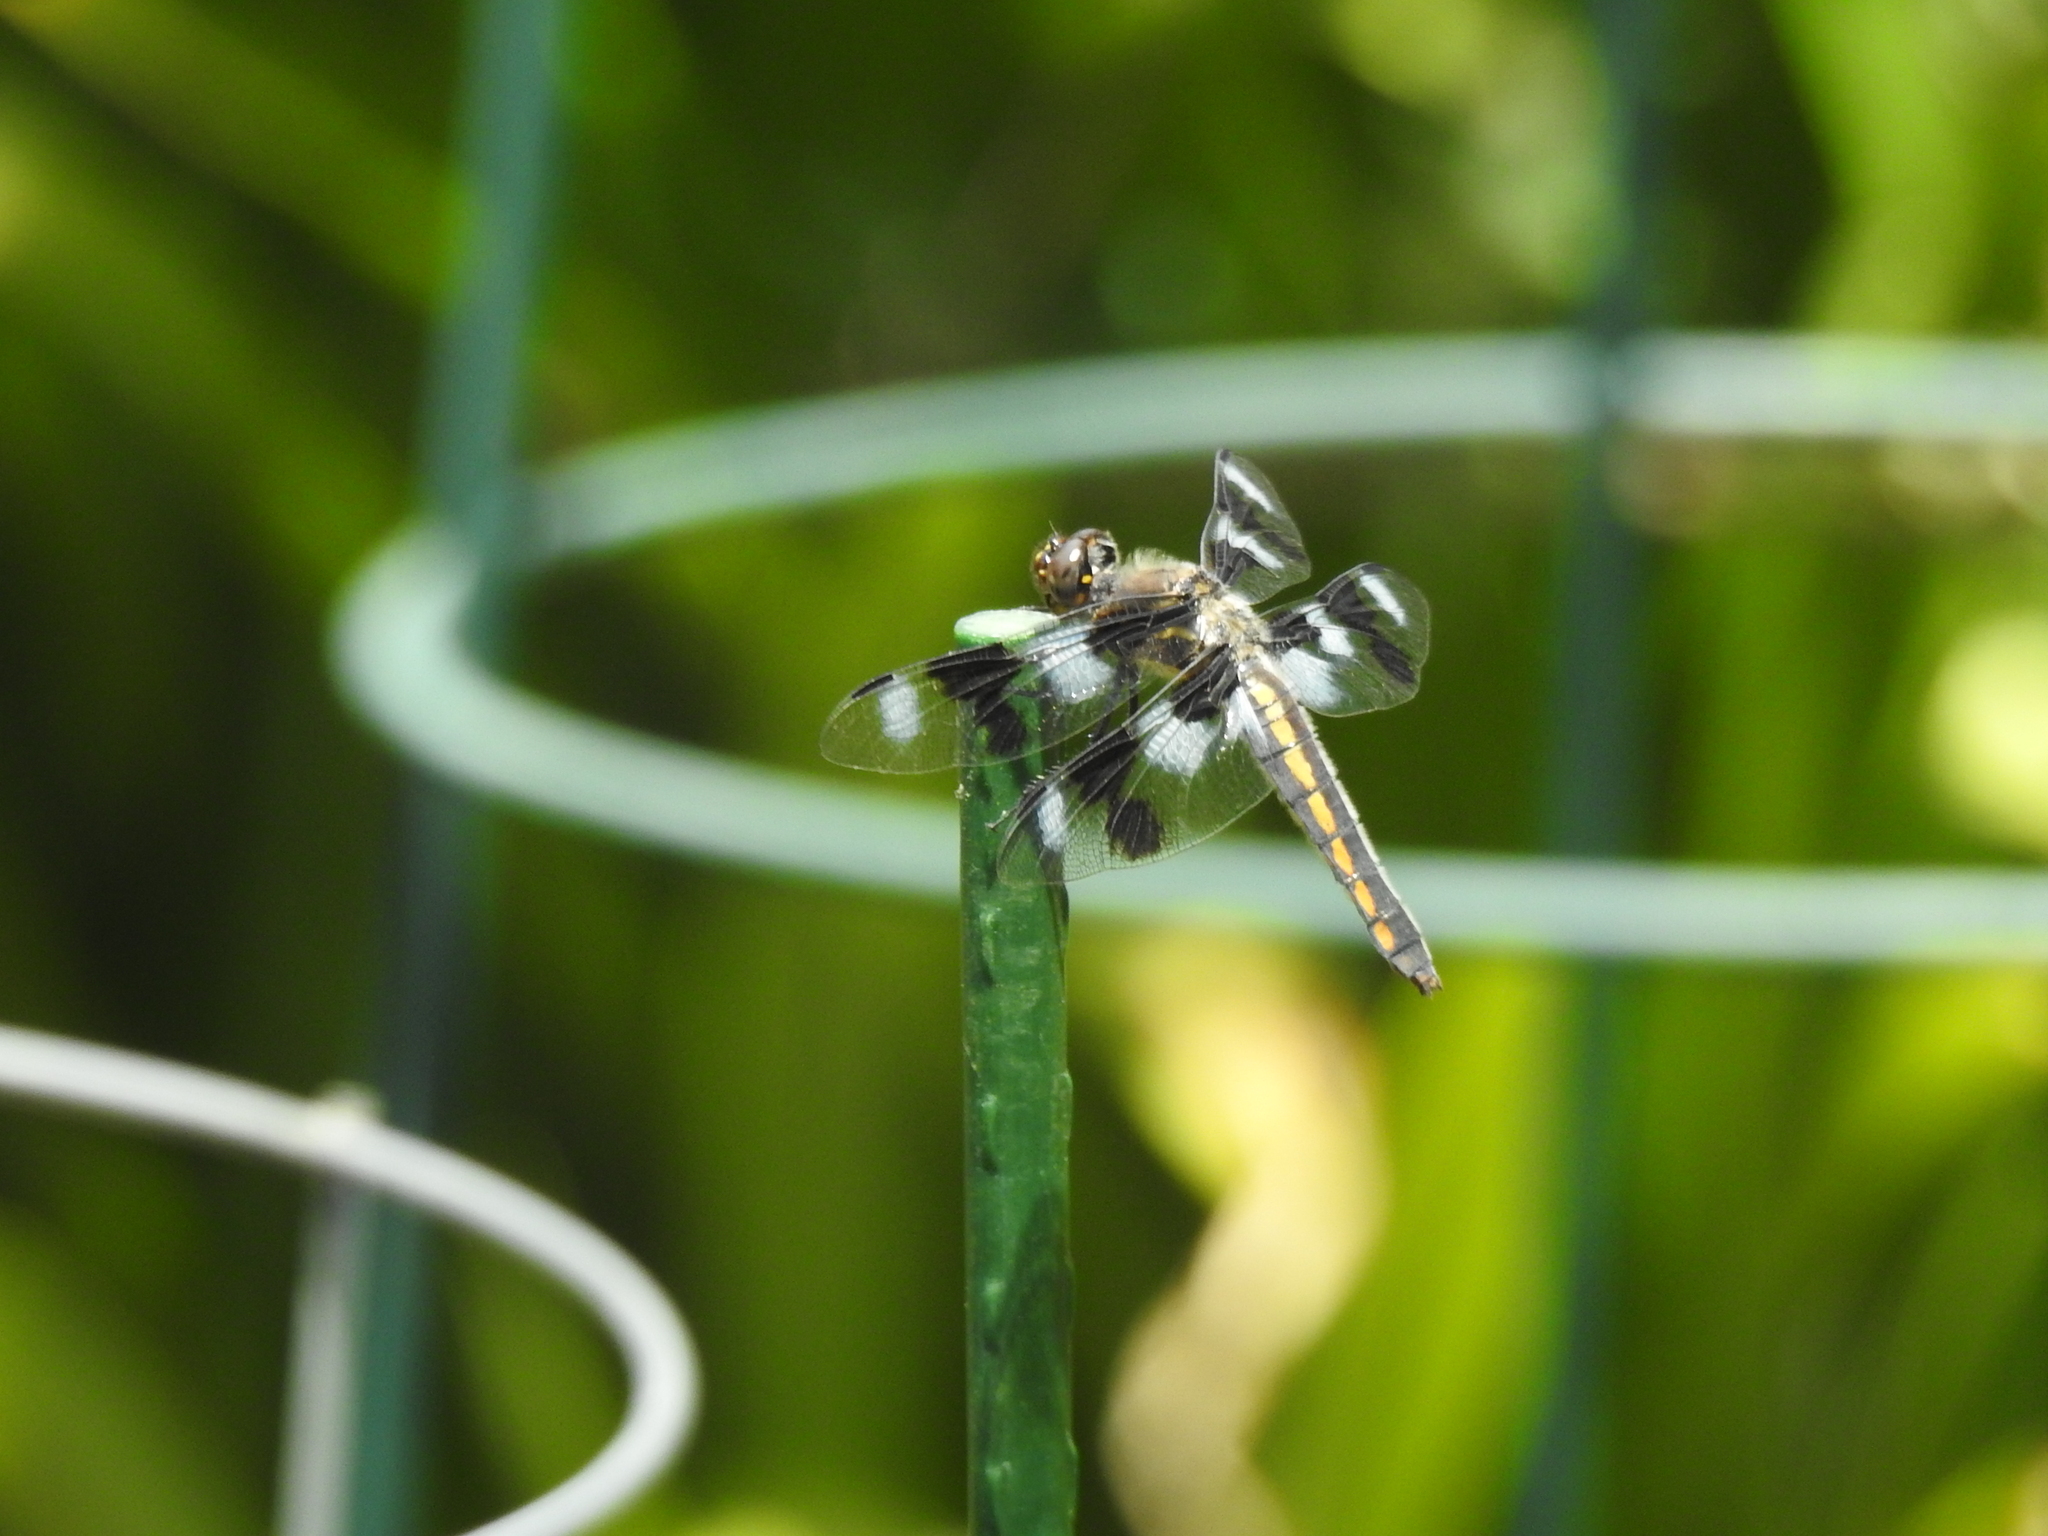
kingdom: Animalia
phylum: Arthropoda
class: Insecta
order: Odonata
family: Libellulidae
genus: Libellula
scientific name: Libellula forensis
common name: Eight-spotted skimmer
